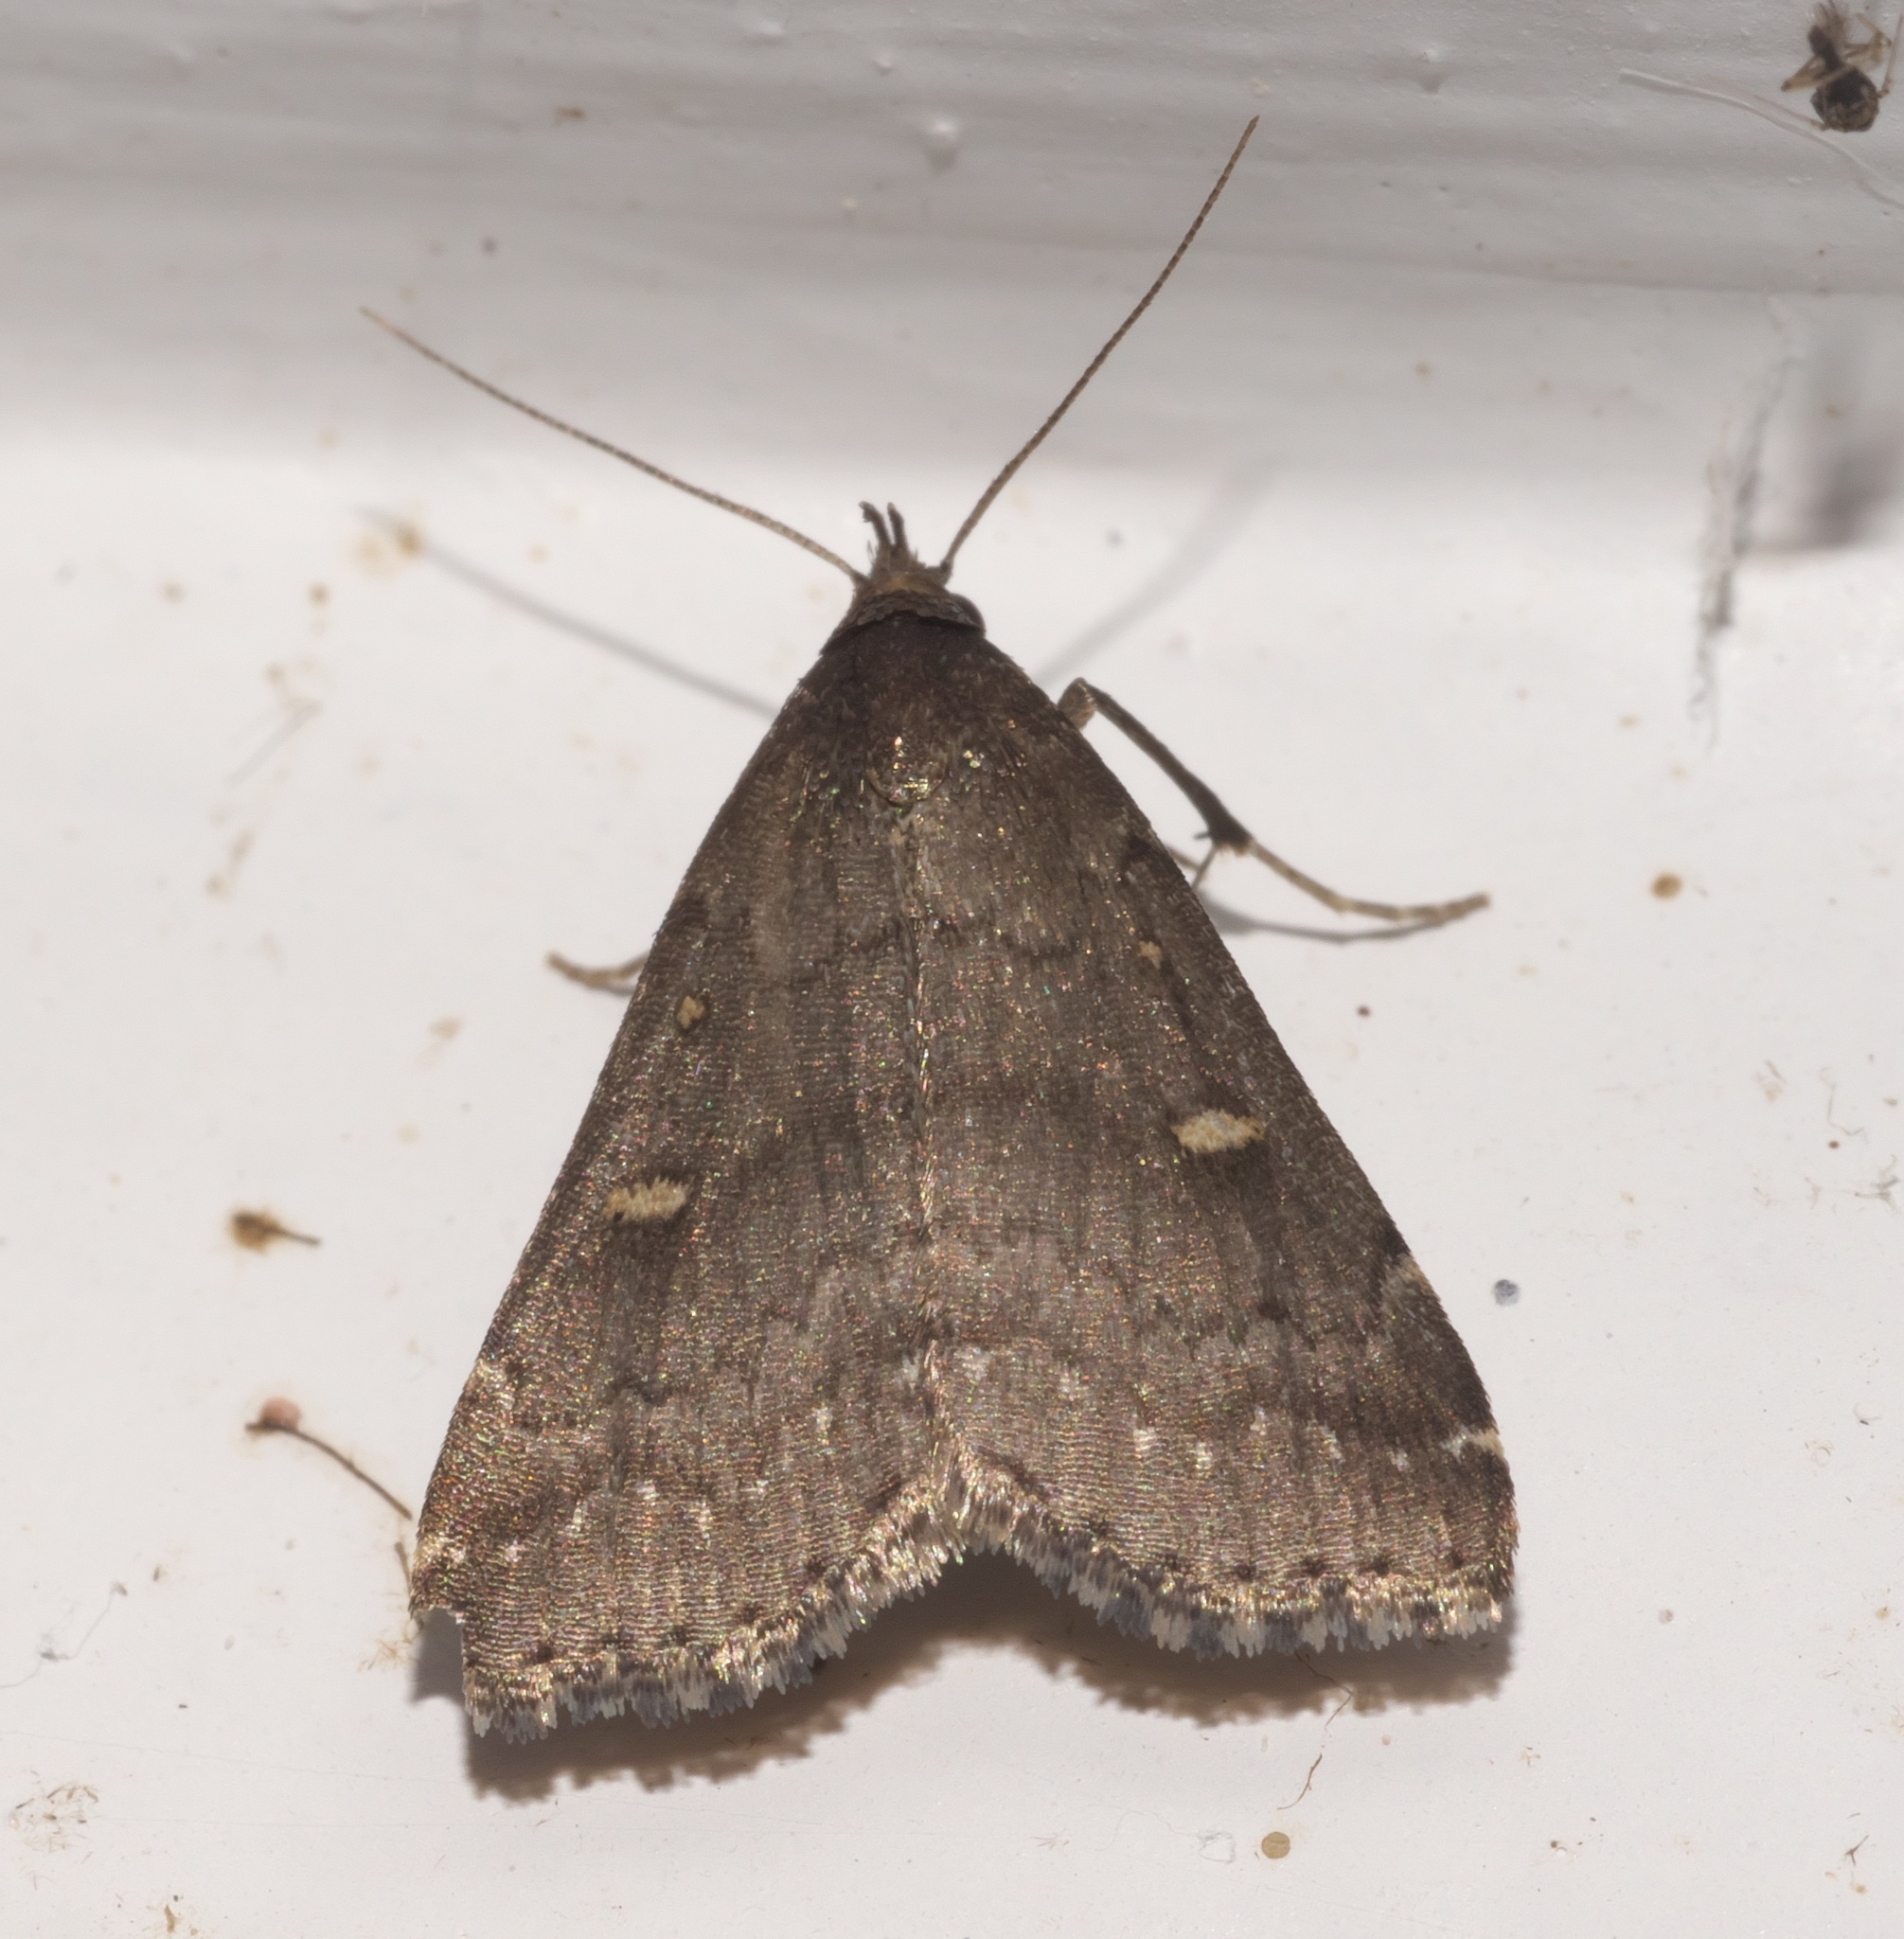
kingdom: Animalia
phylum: Arthropoda
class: Insecta
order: Lepidoptera
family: Erebidae
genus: Tetanolita
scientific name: Tetanolita mynesalis
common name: Smoky tetanolita moth
